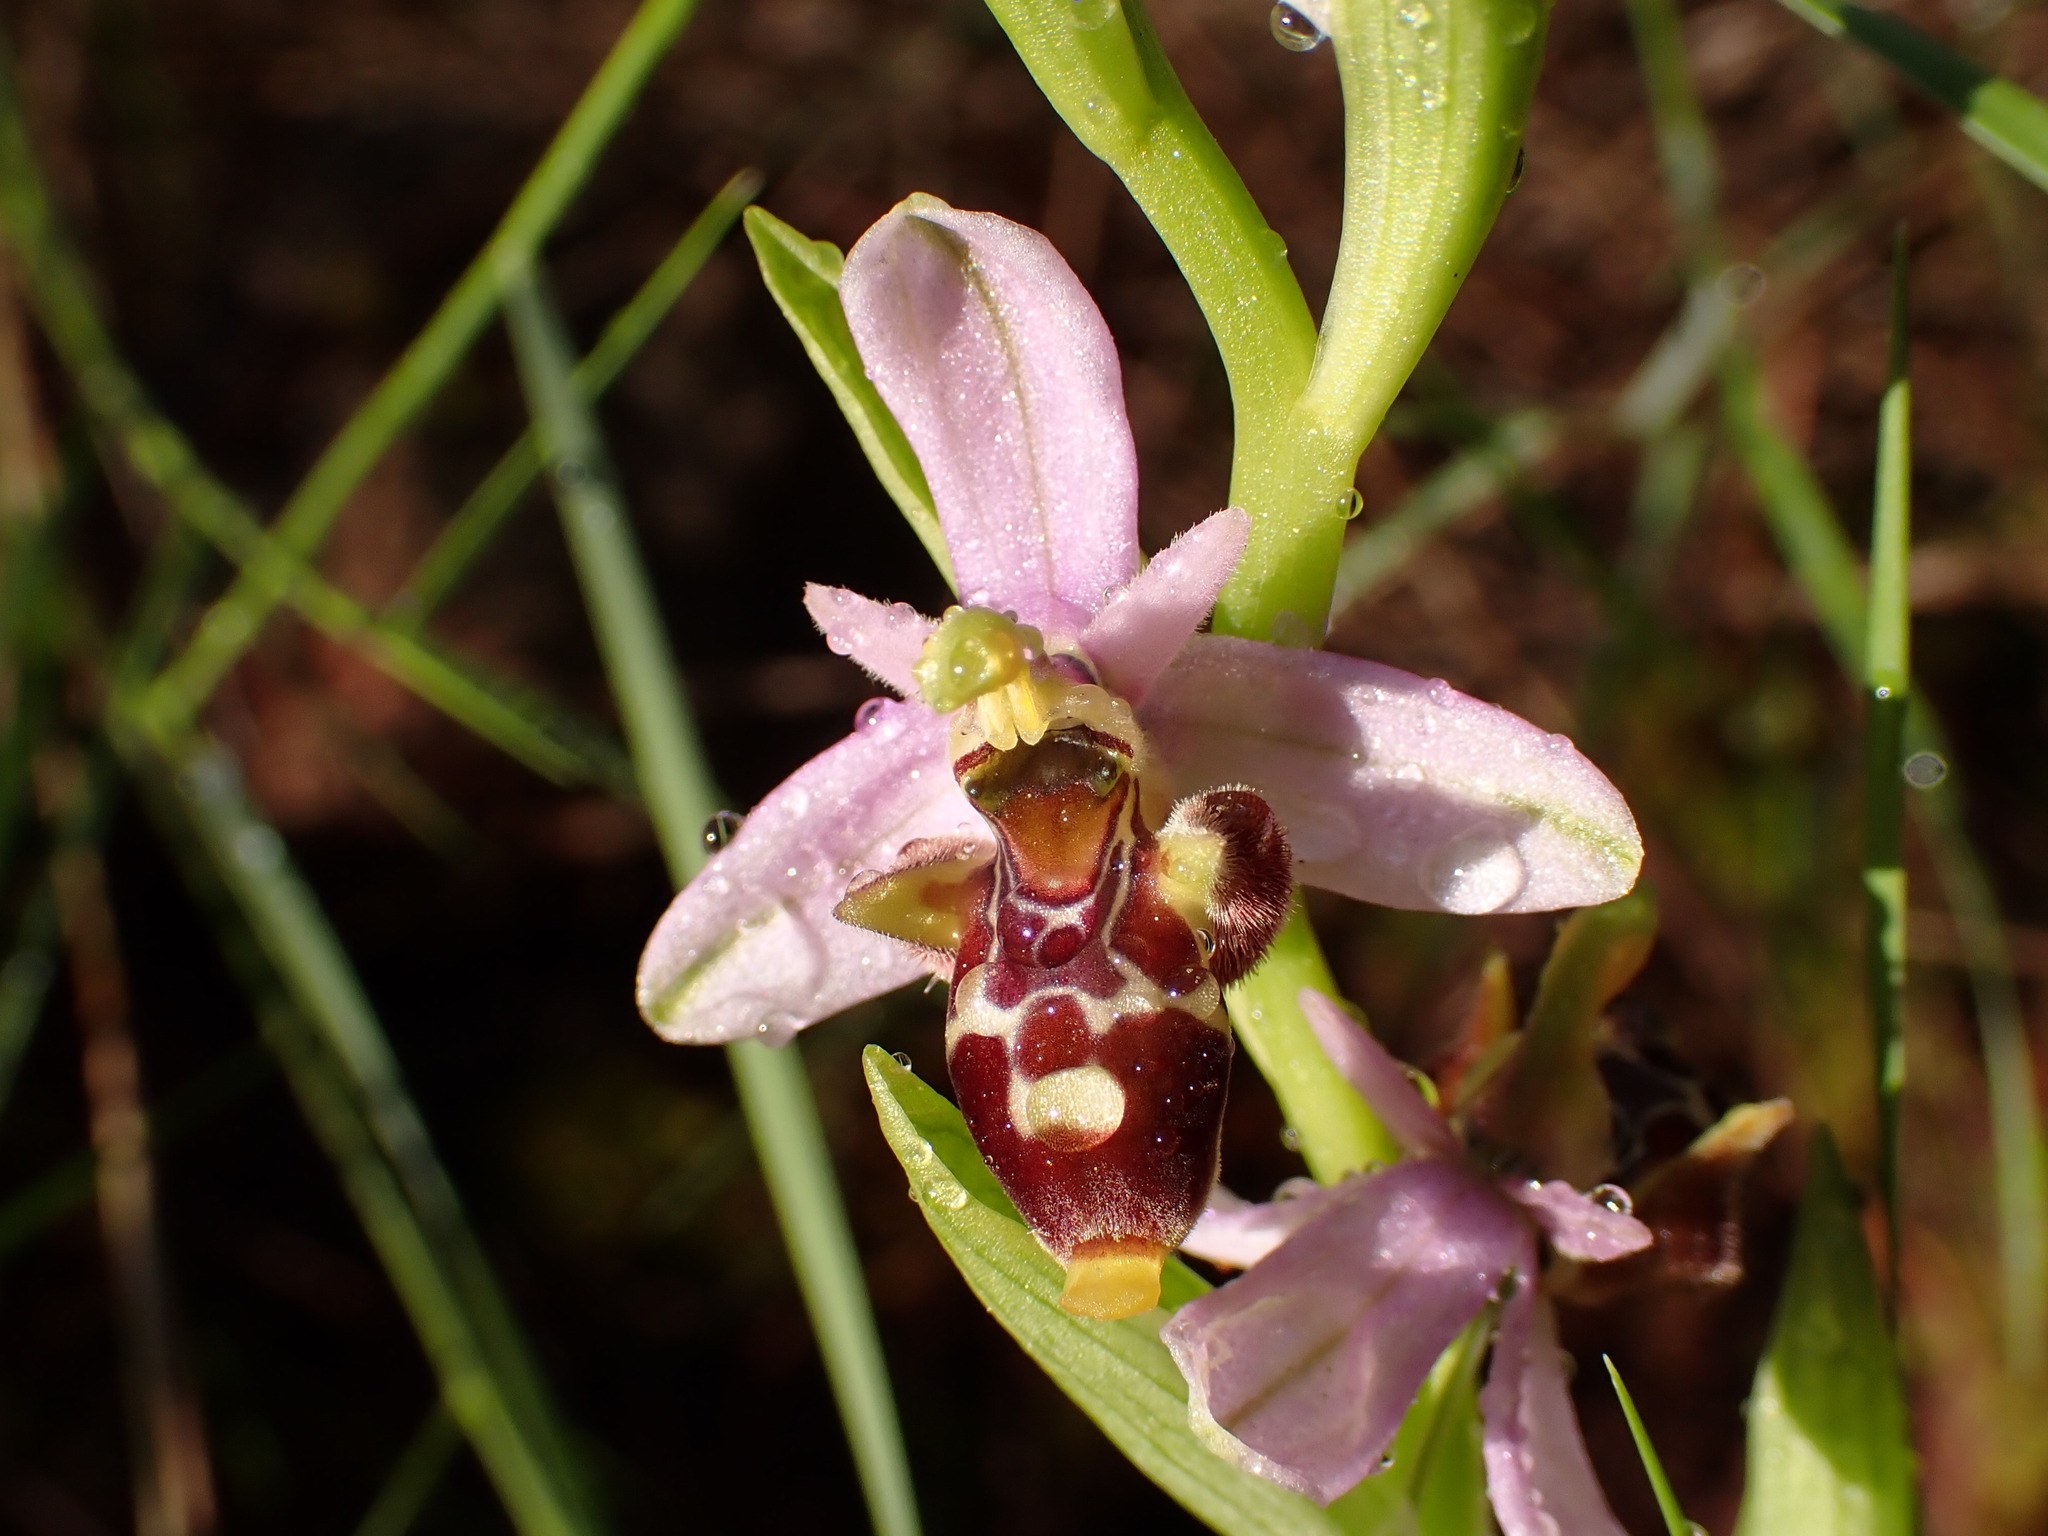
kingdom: Plantae
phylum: Tracheophyta
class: Liliopsida
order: Asparagales
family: Orchidaceae
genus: Ophrys
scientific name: Ophrys scolopax
